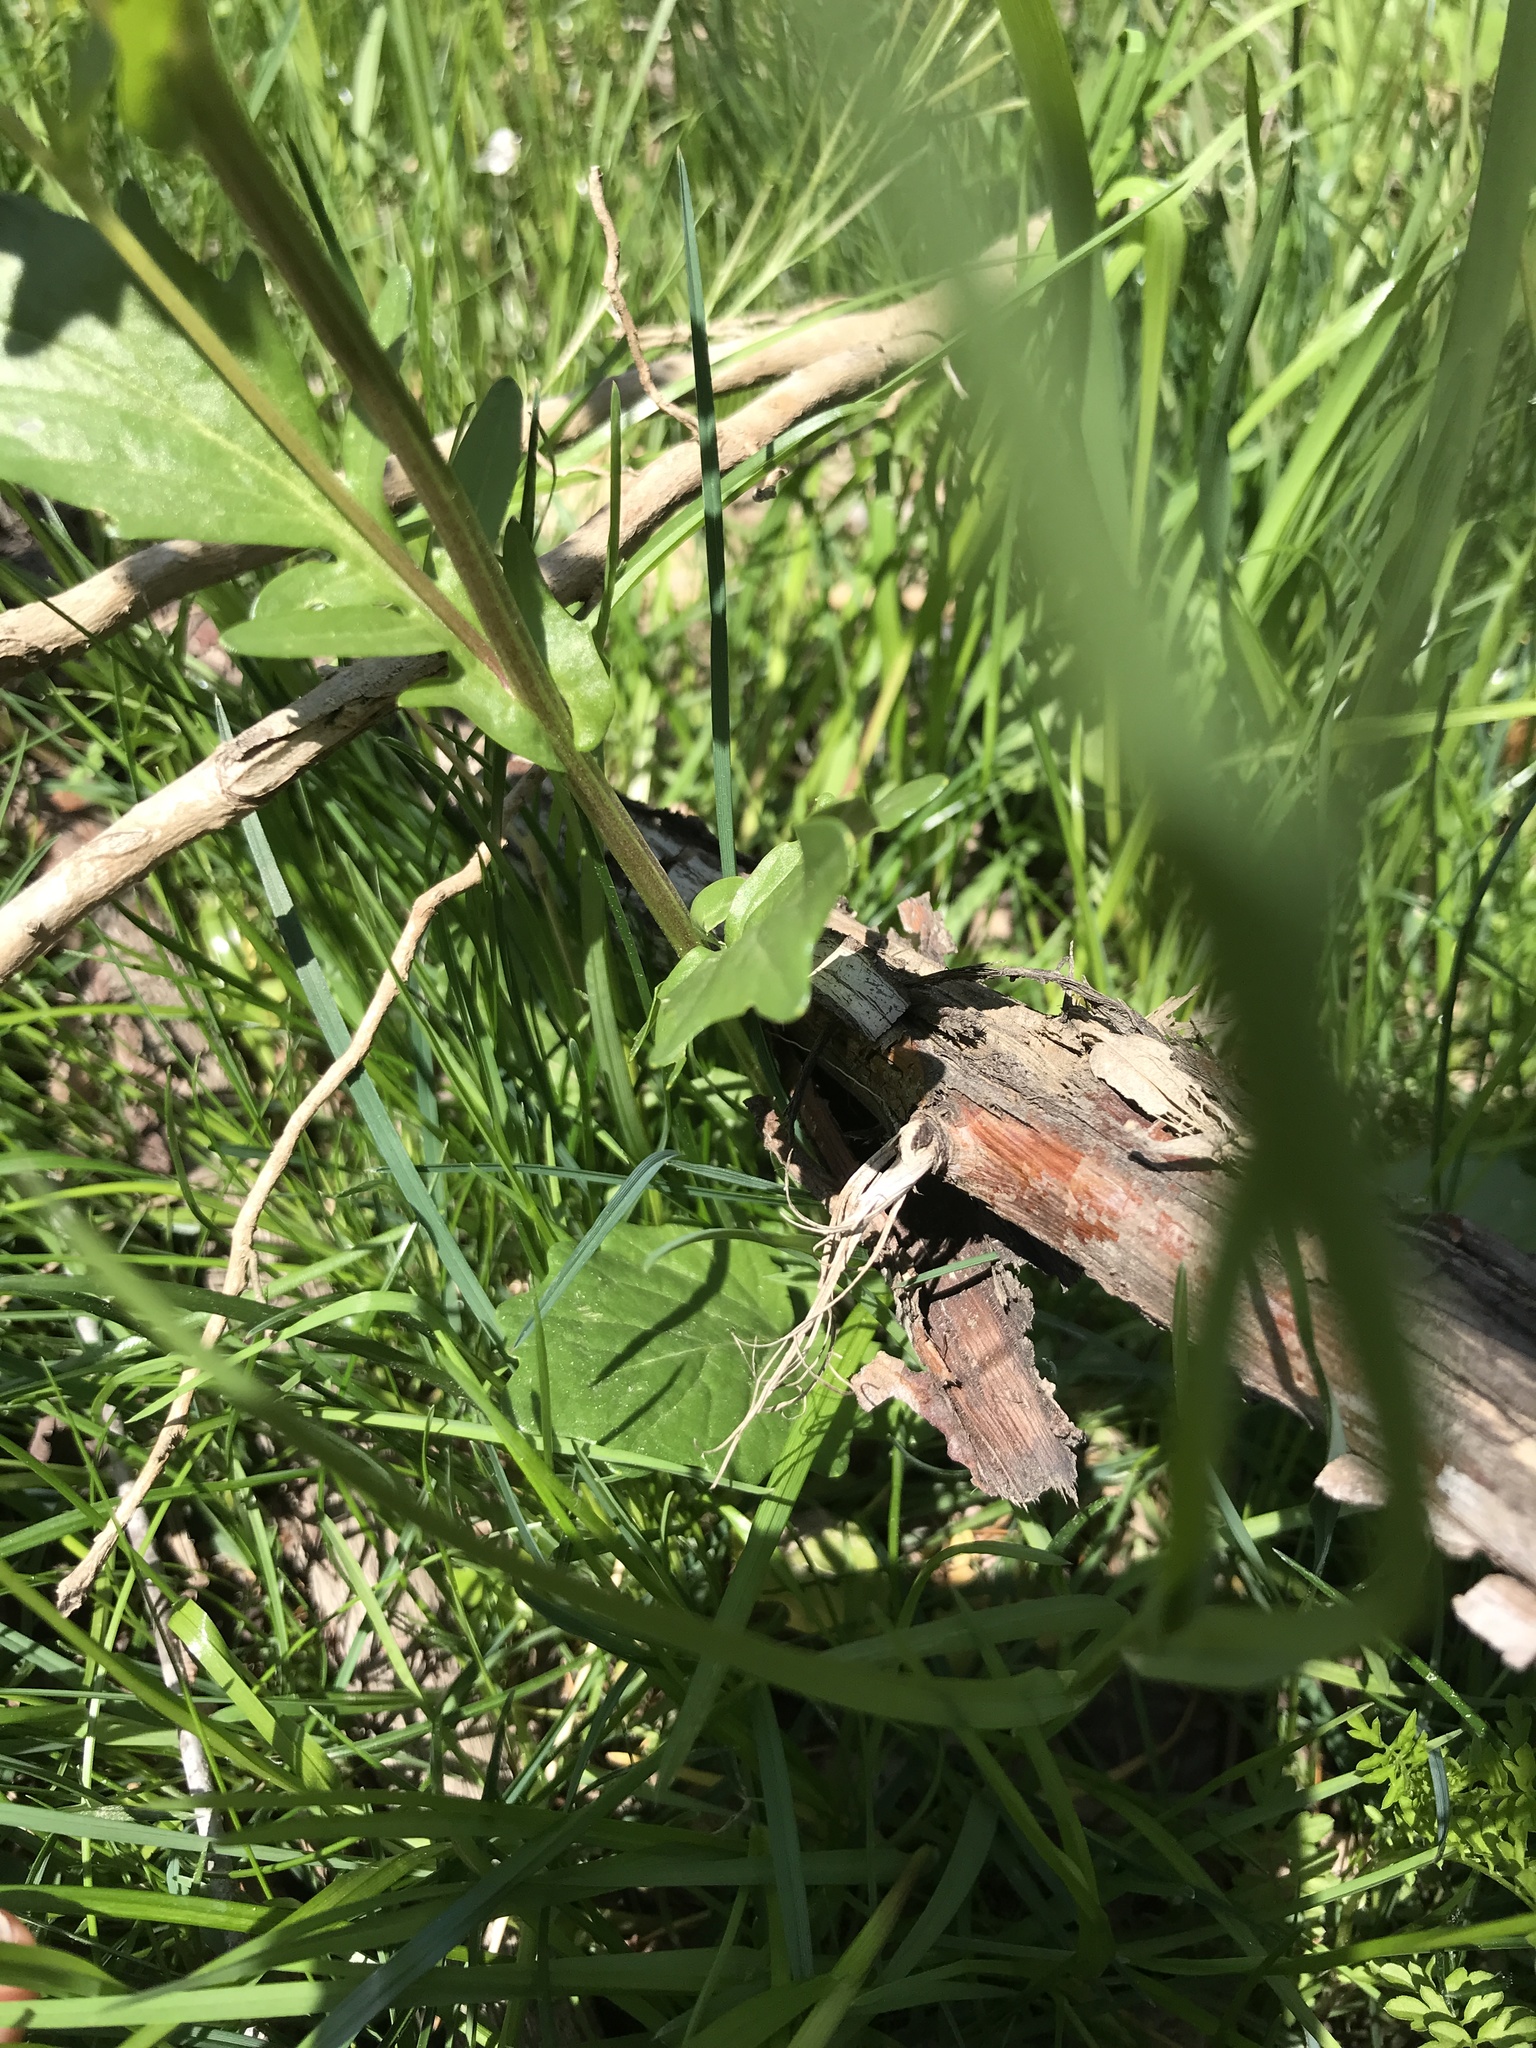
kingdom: Plantae
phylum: Tracheophyta
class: Magnoliopsida
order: Brassicales
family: Brassicaceae
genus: Barbarea
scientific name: Barbarea vulgaris
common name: Cressy-greens
